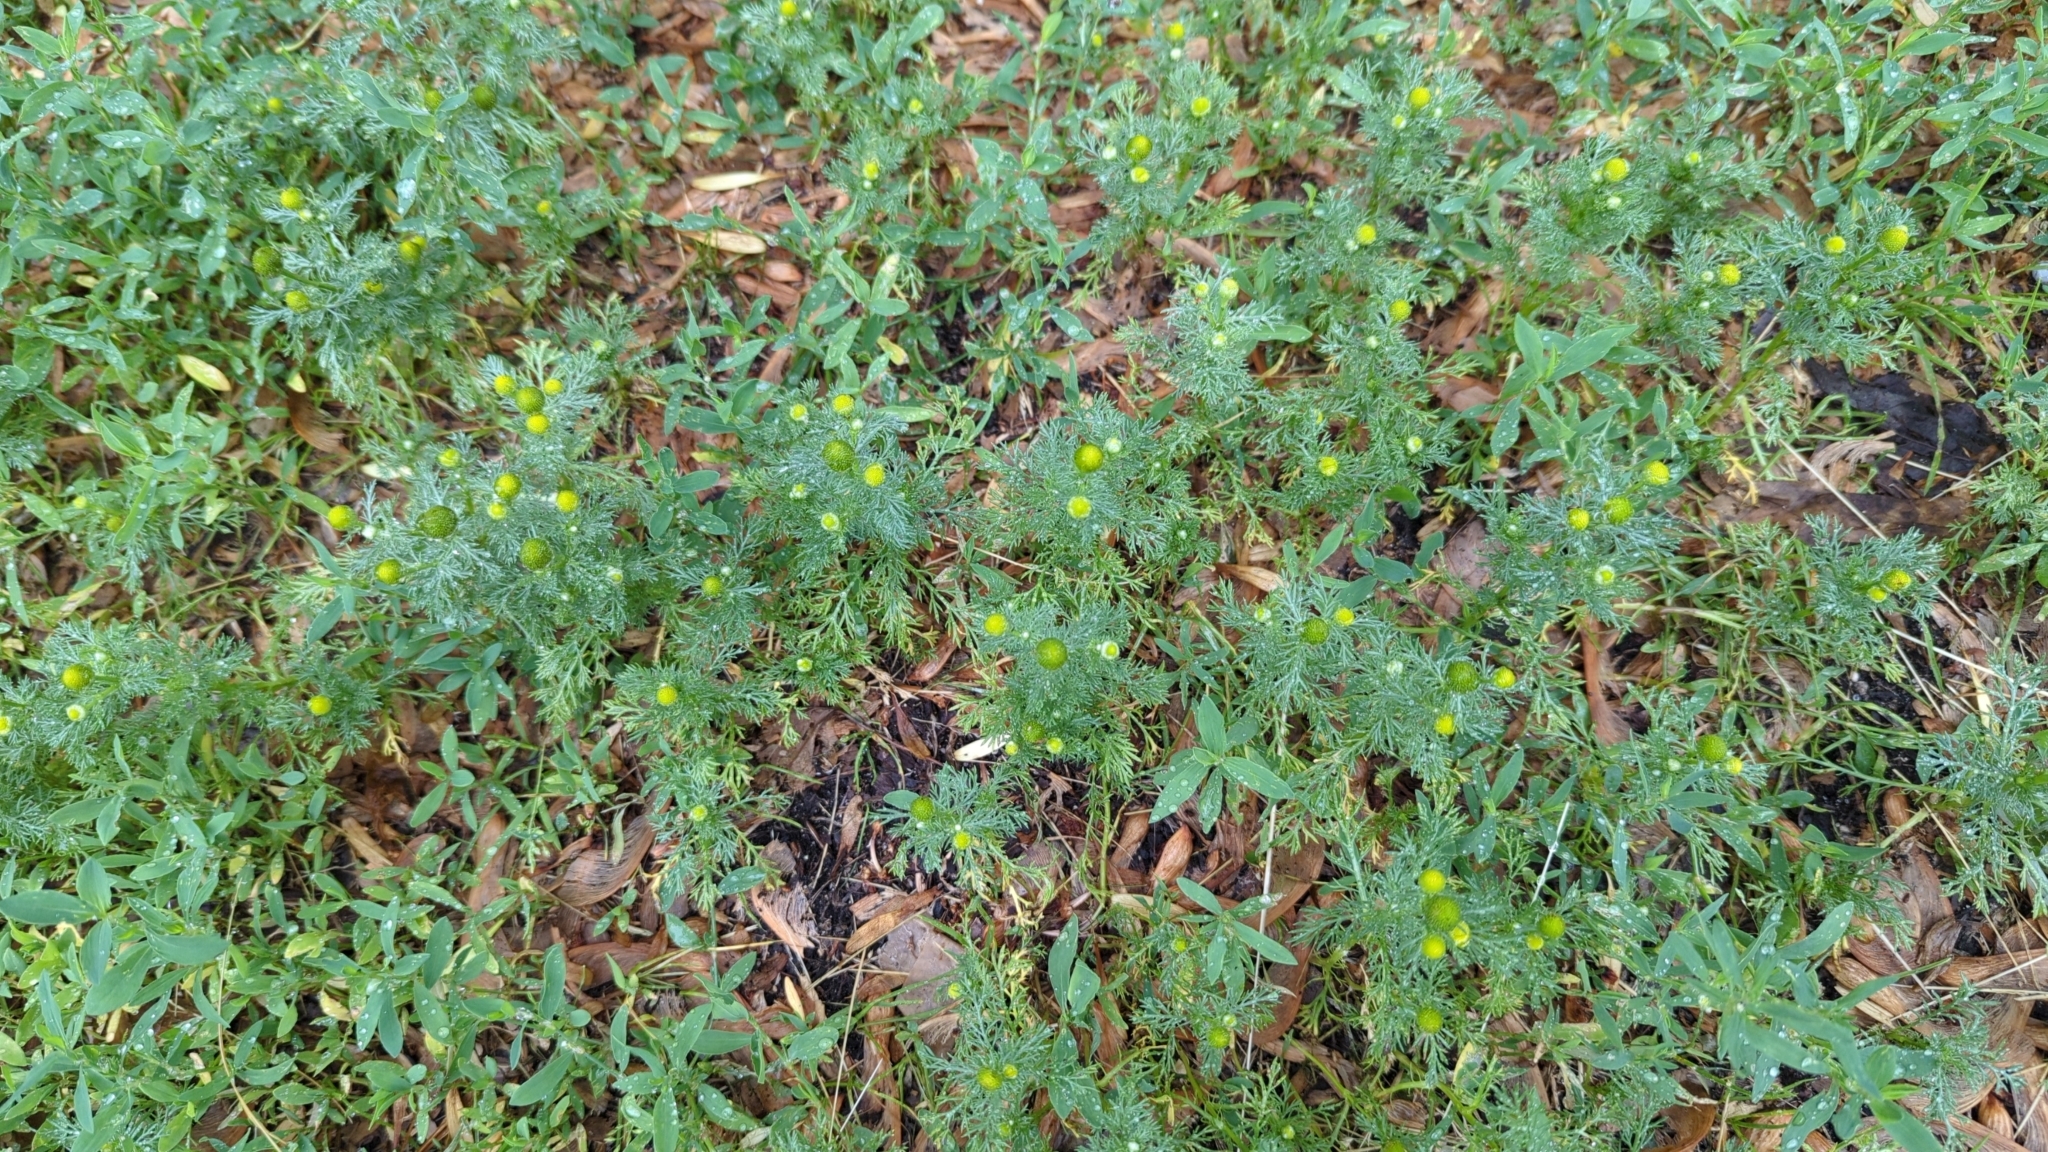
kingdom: Plantae
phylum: Tracheophyta
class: Magnoliopsida
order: Asterales
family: Asteraceae
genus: Matricaria
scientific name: Matricaria discoidea
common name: Disc mayweed
